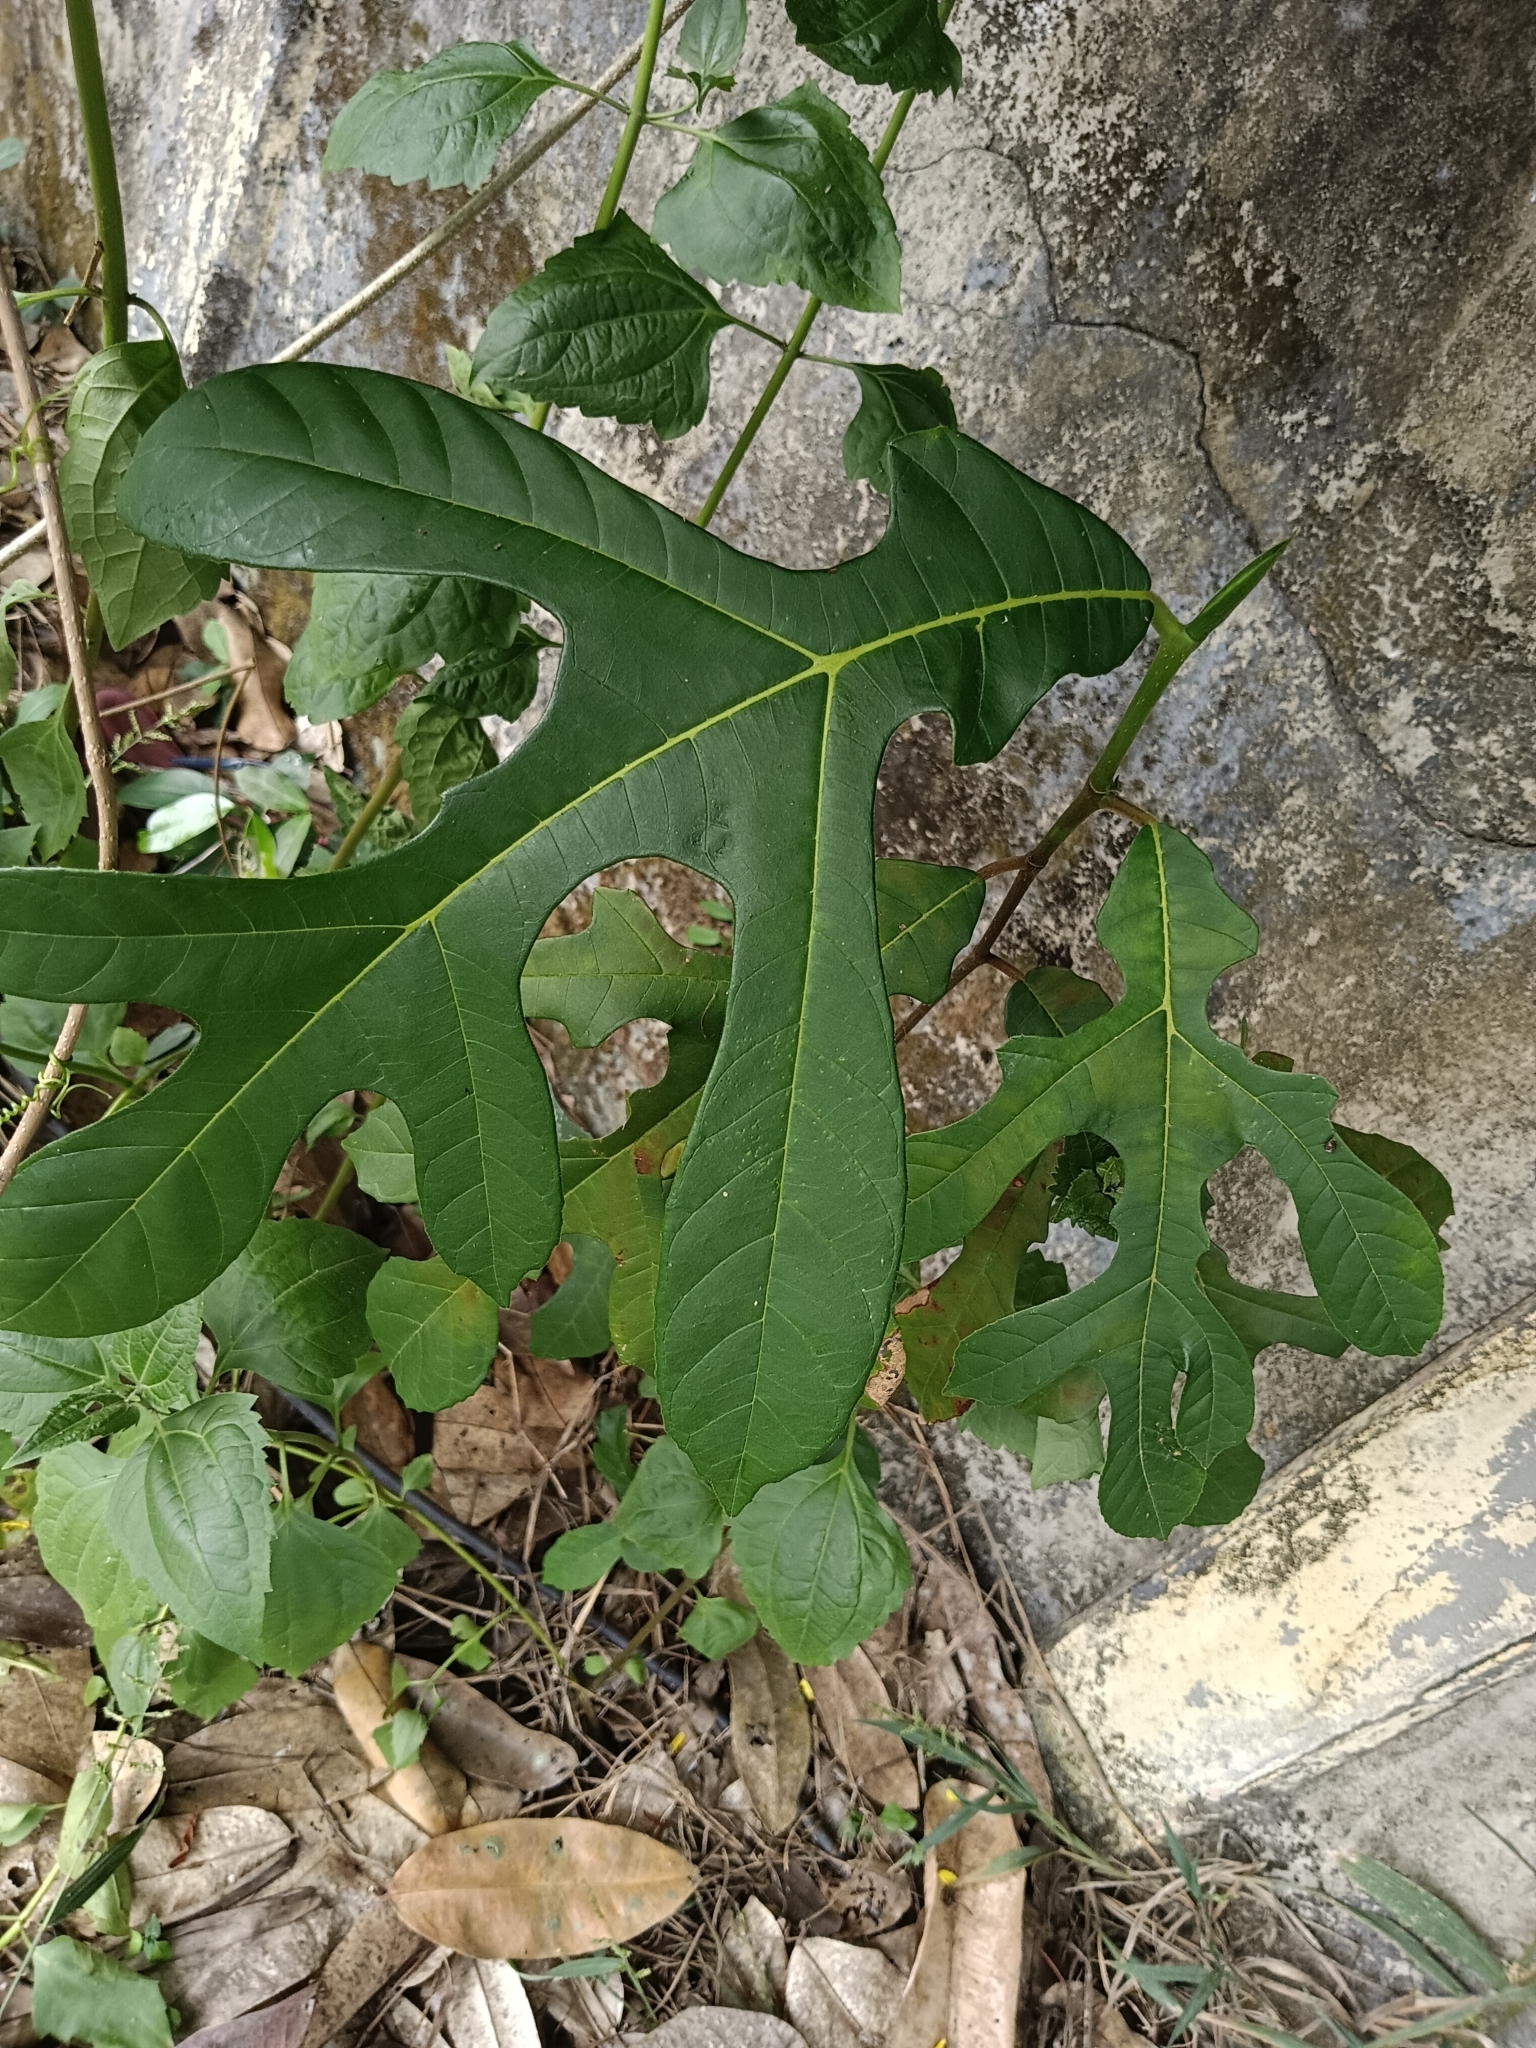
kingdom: Plantae
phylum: Tracheophyta
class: Magnoliopsida
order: Rosales
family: Moraceae
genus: Artocarpus
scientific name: Artocarpus hirsutus
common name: Hairy bread-fruit tree
